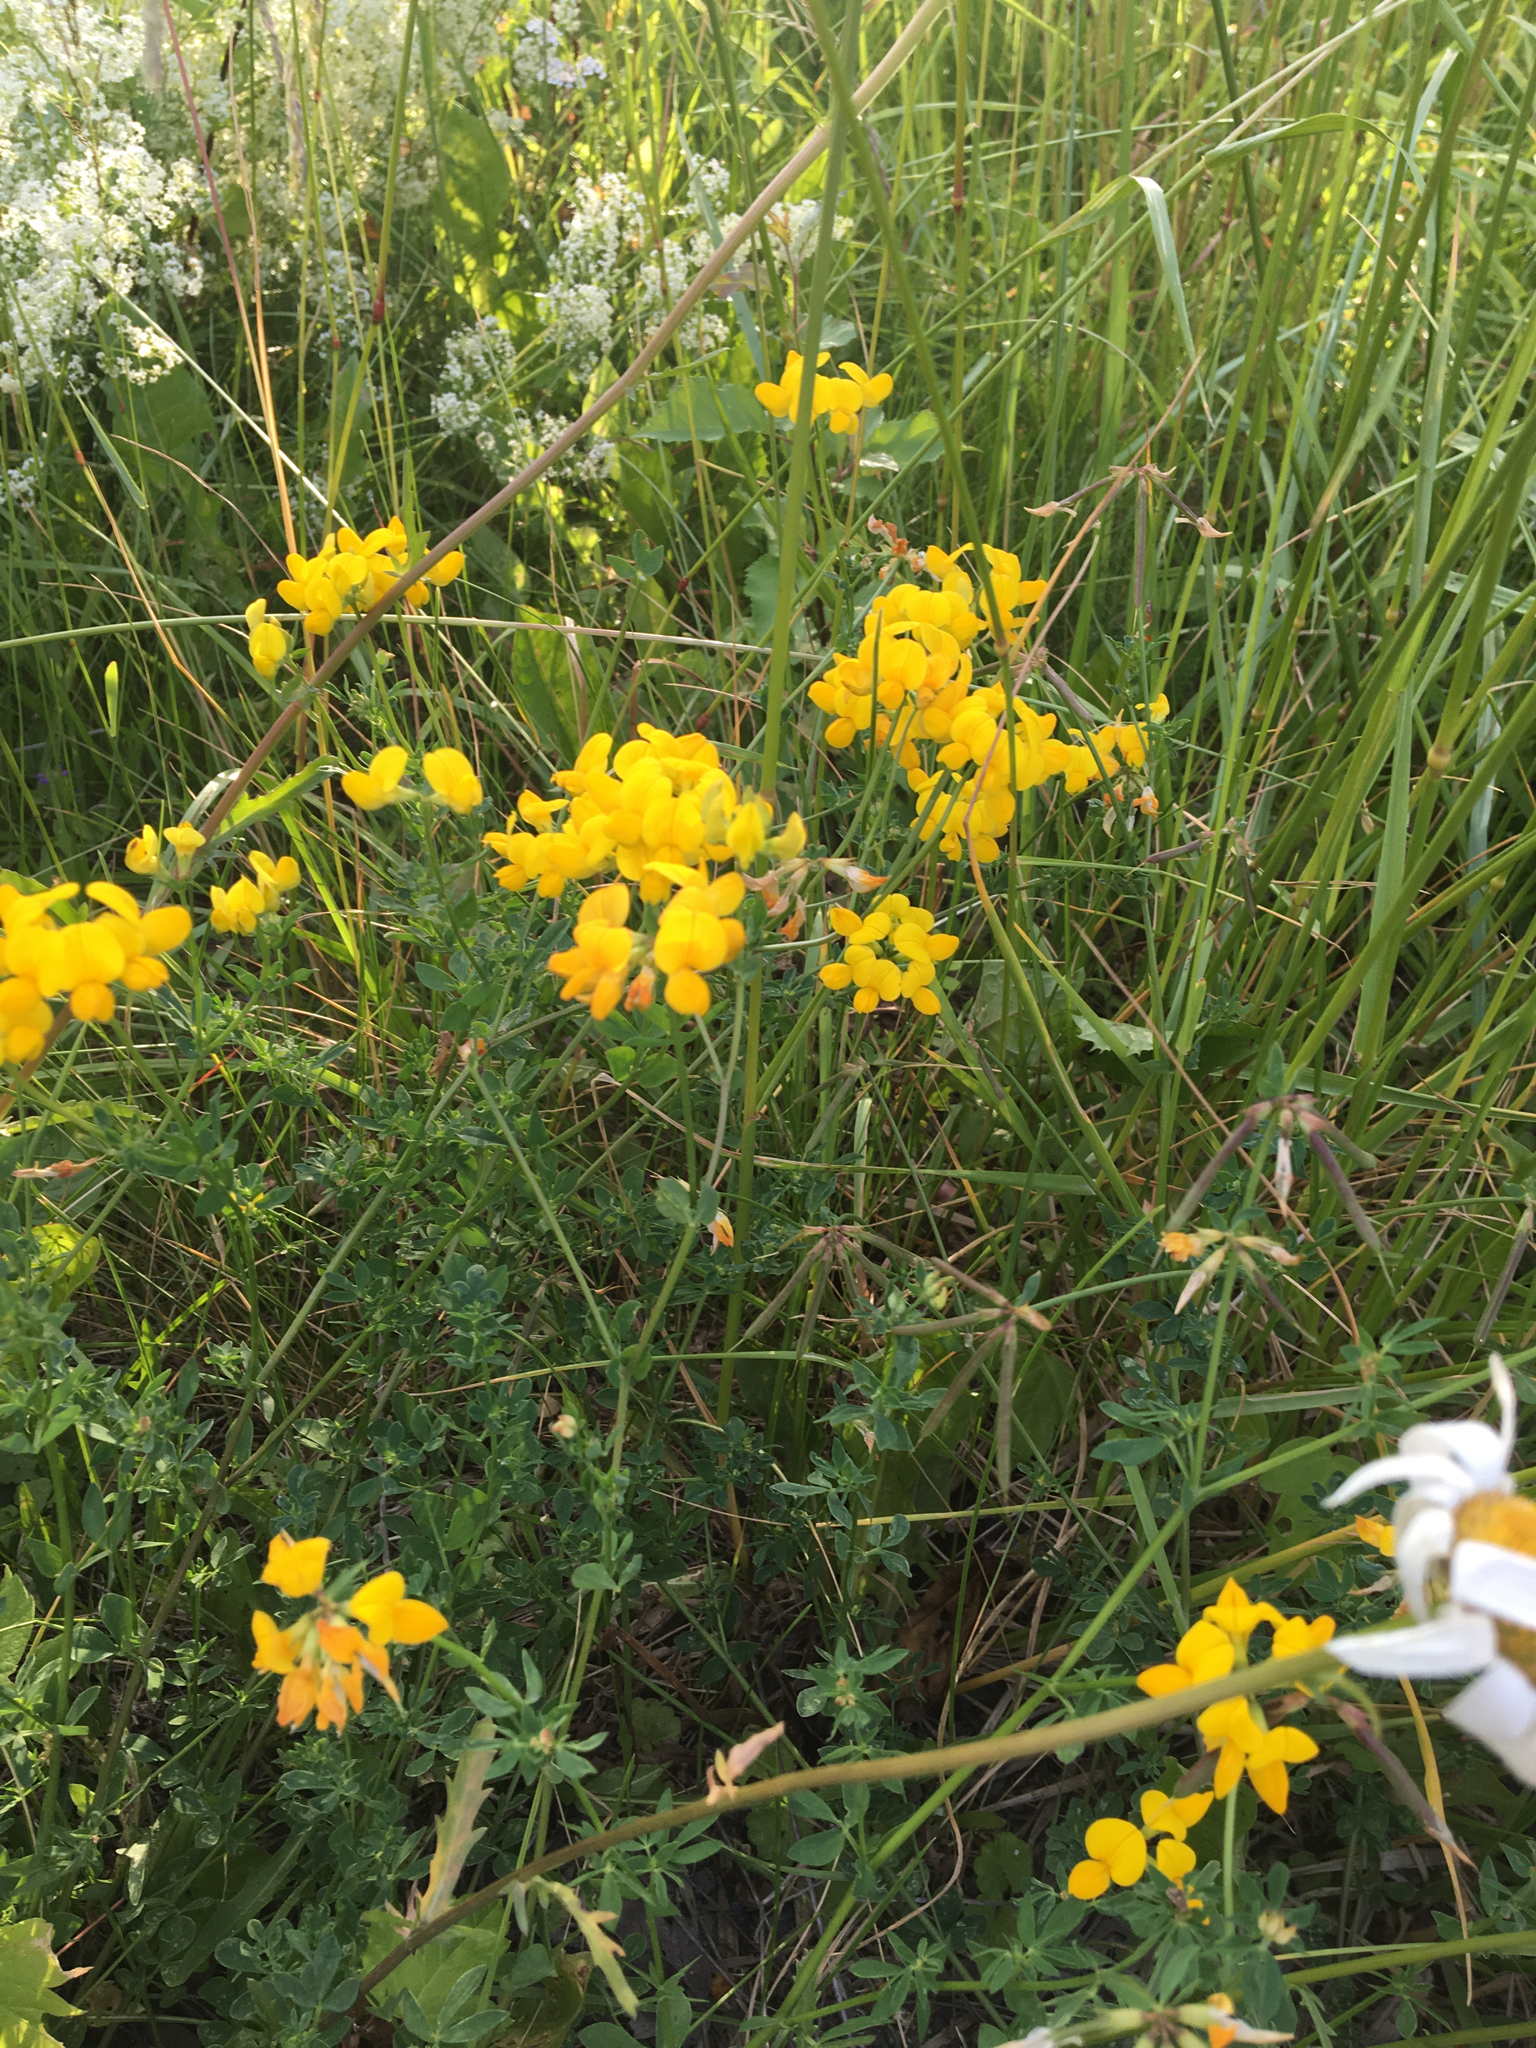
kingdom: Plantae
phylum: Tracheophyta
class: Magnoliopsida
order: Fabales
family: Fabaceae
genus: Lotus
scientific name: Lotus corniculatus
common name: Common bird's-foot-trefoil
